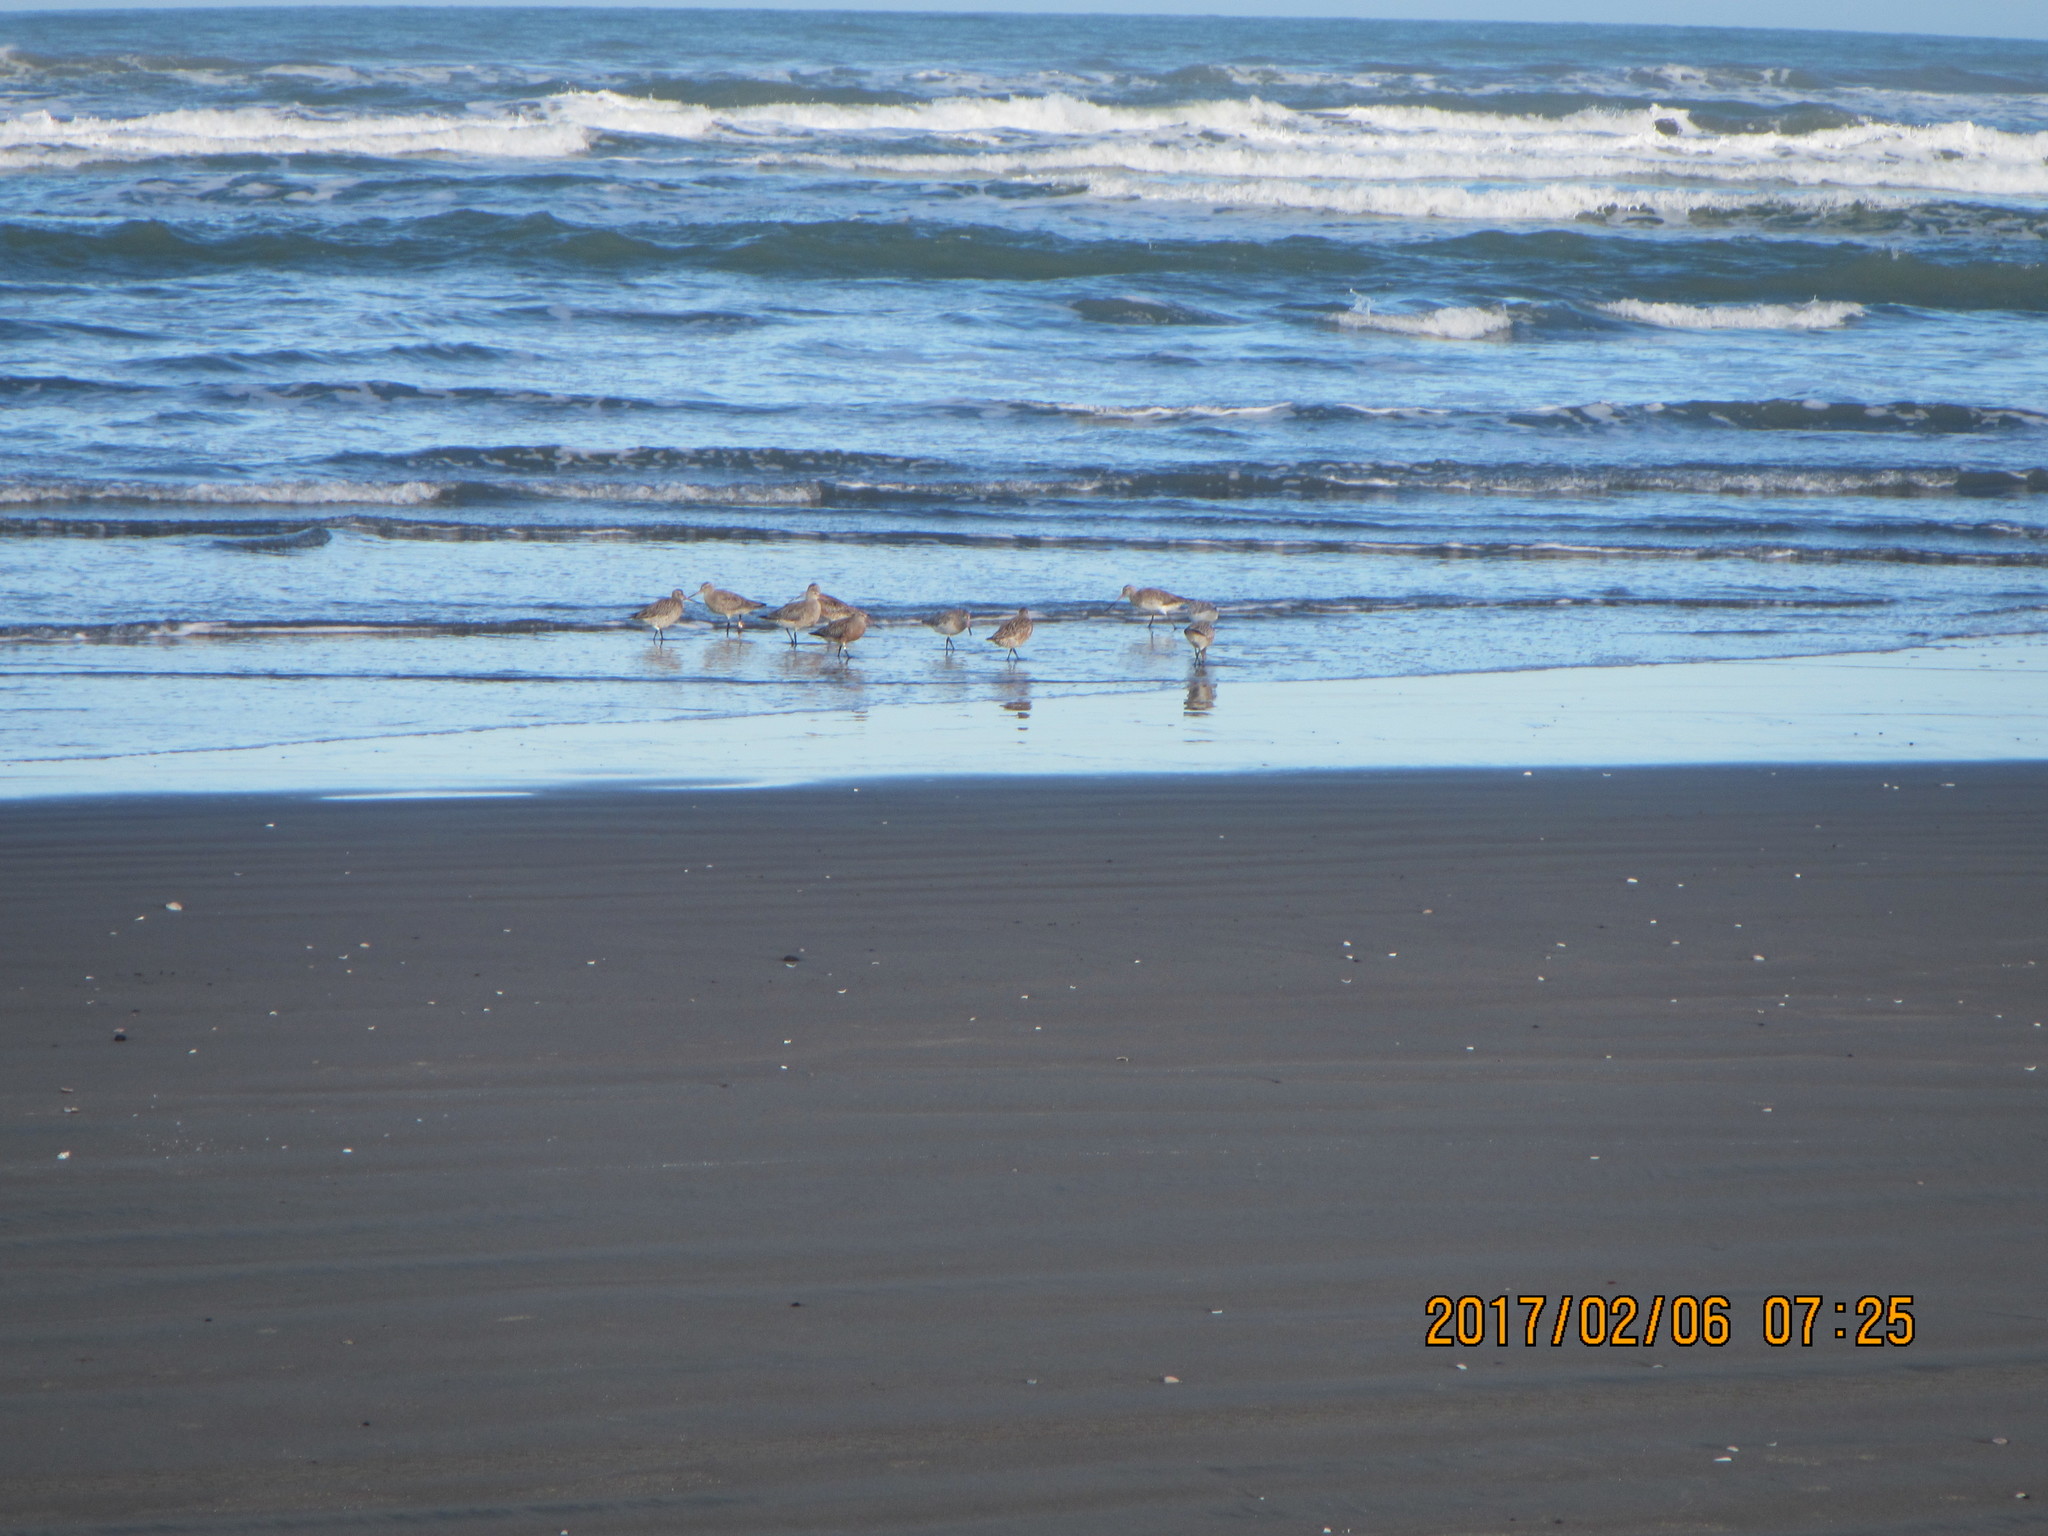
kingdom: Animalia
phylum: Chordata
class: Aves
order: Charadriiformes
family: Scolopacidae
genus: Limosa
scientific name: Limosa lapponica
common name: Bar-tailed godwit
